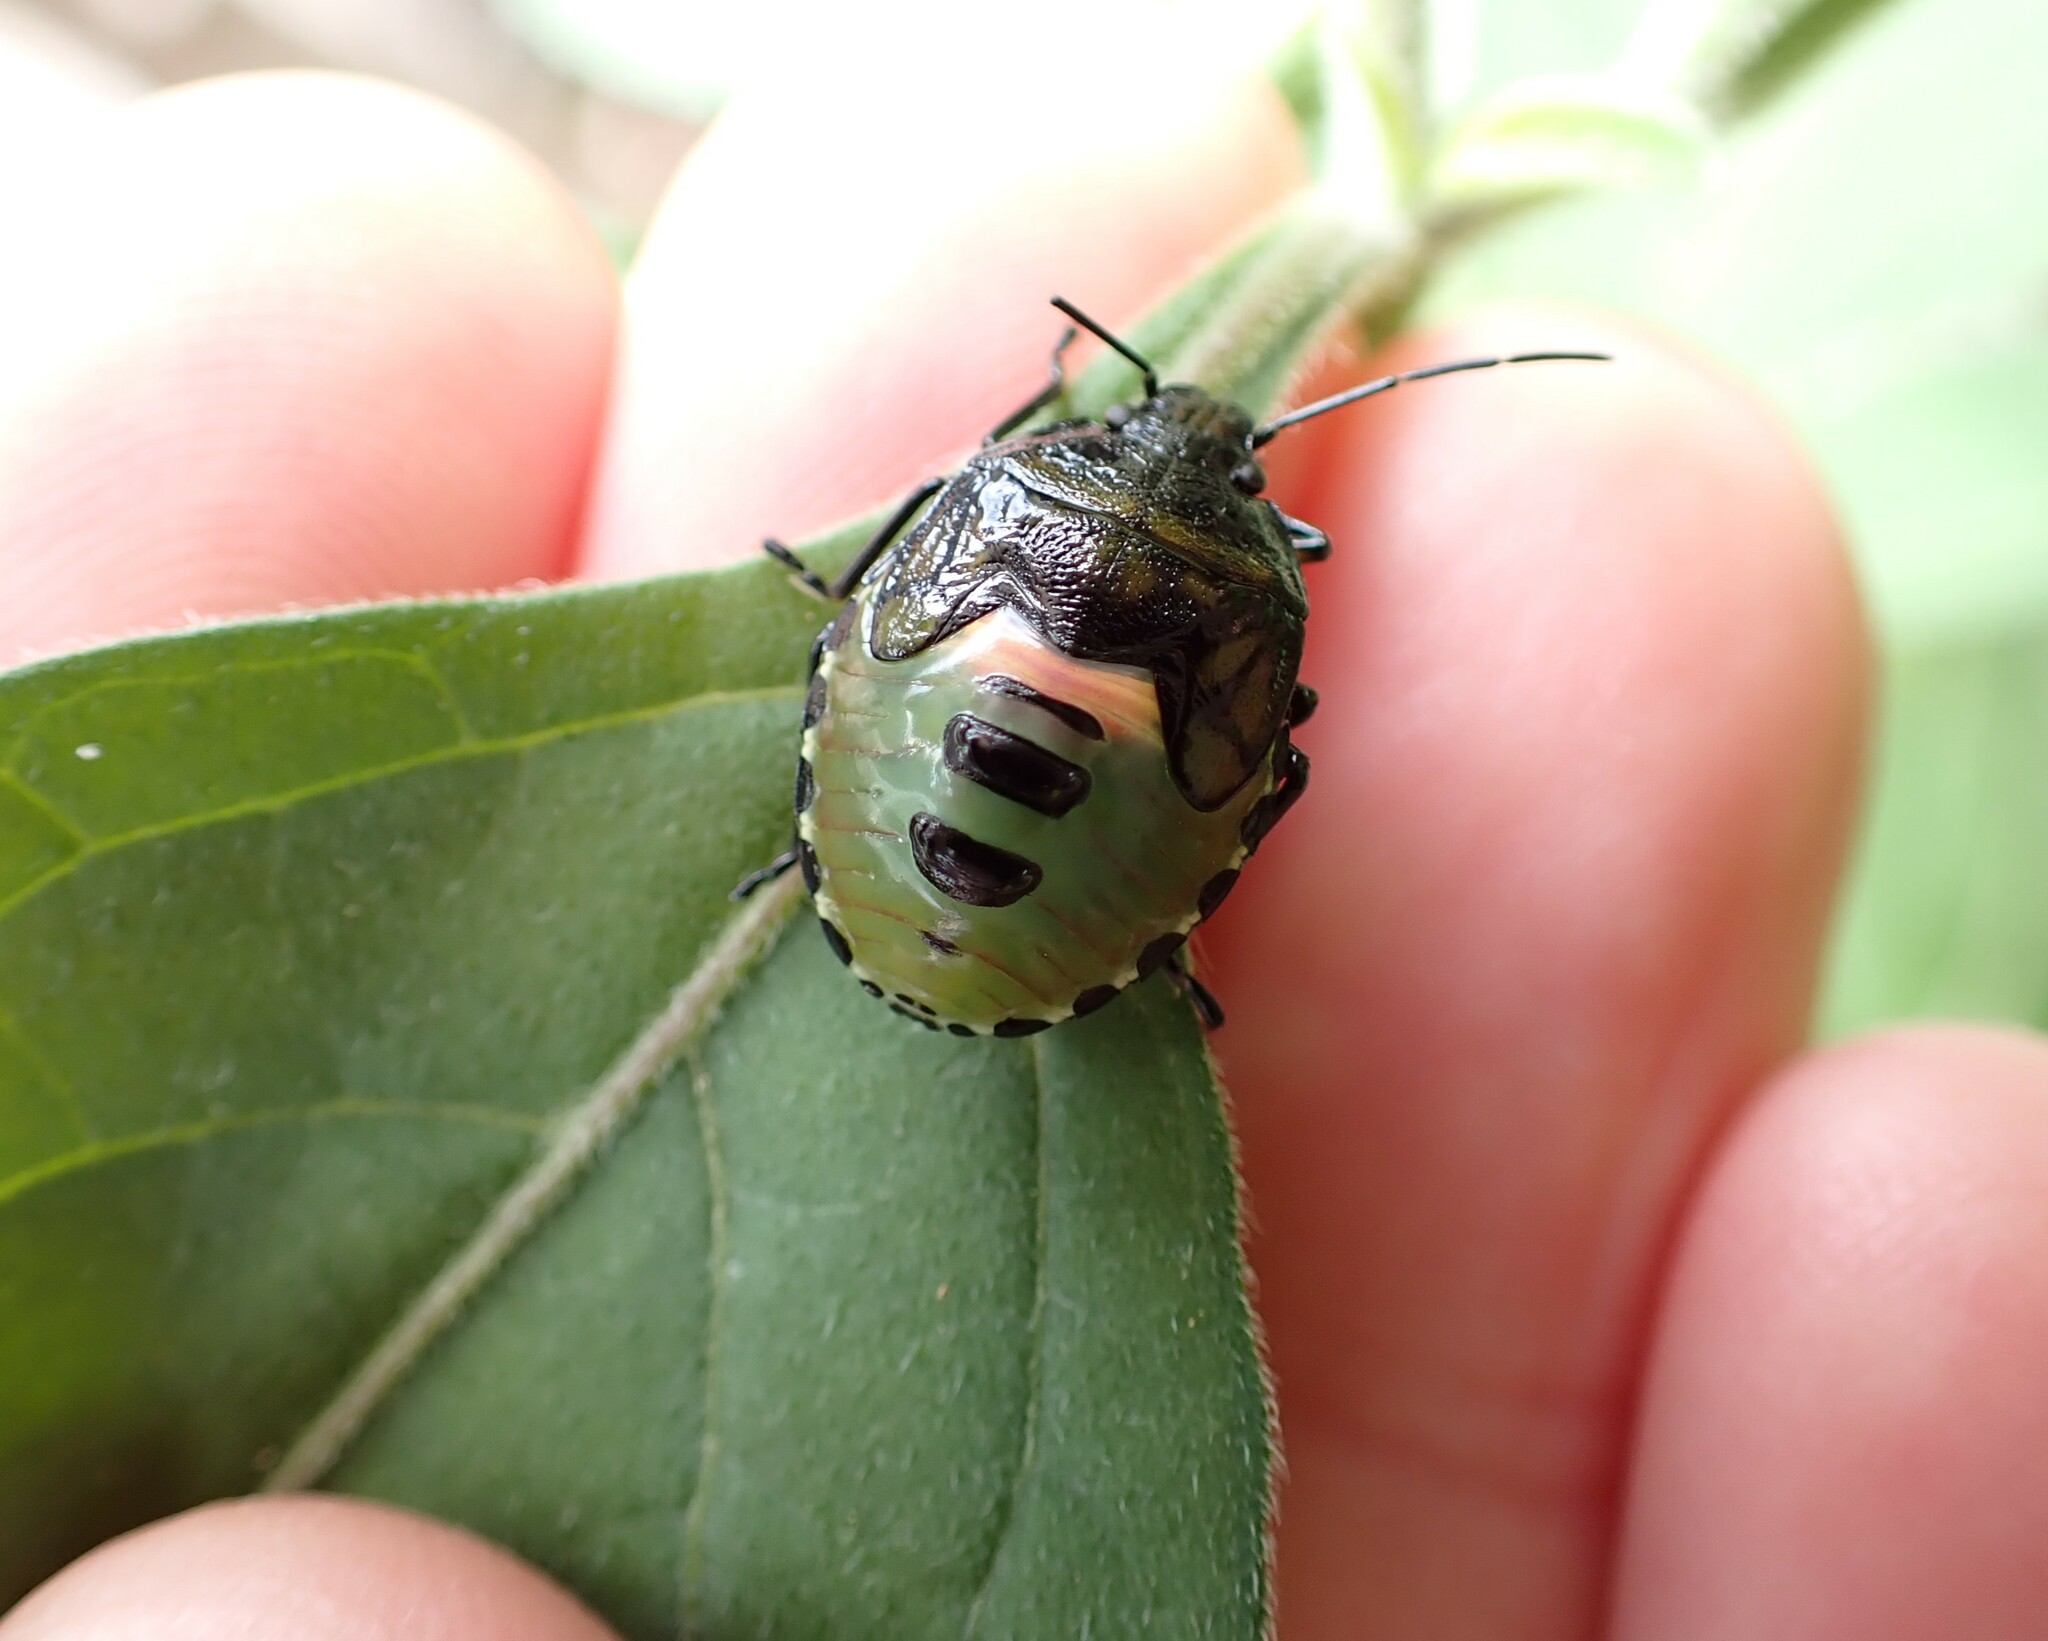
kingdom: Animalia
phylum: Arthropoda
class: Insecta
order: Hemiptera
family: Pentatomidae
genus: Glaucias
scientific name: Glaucias amyota
